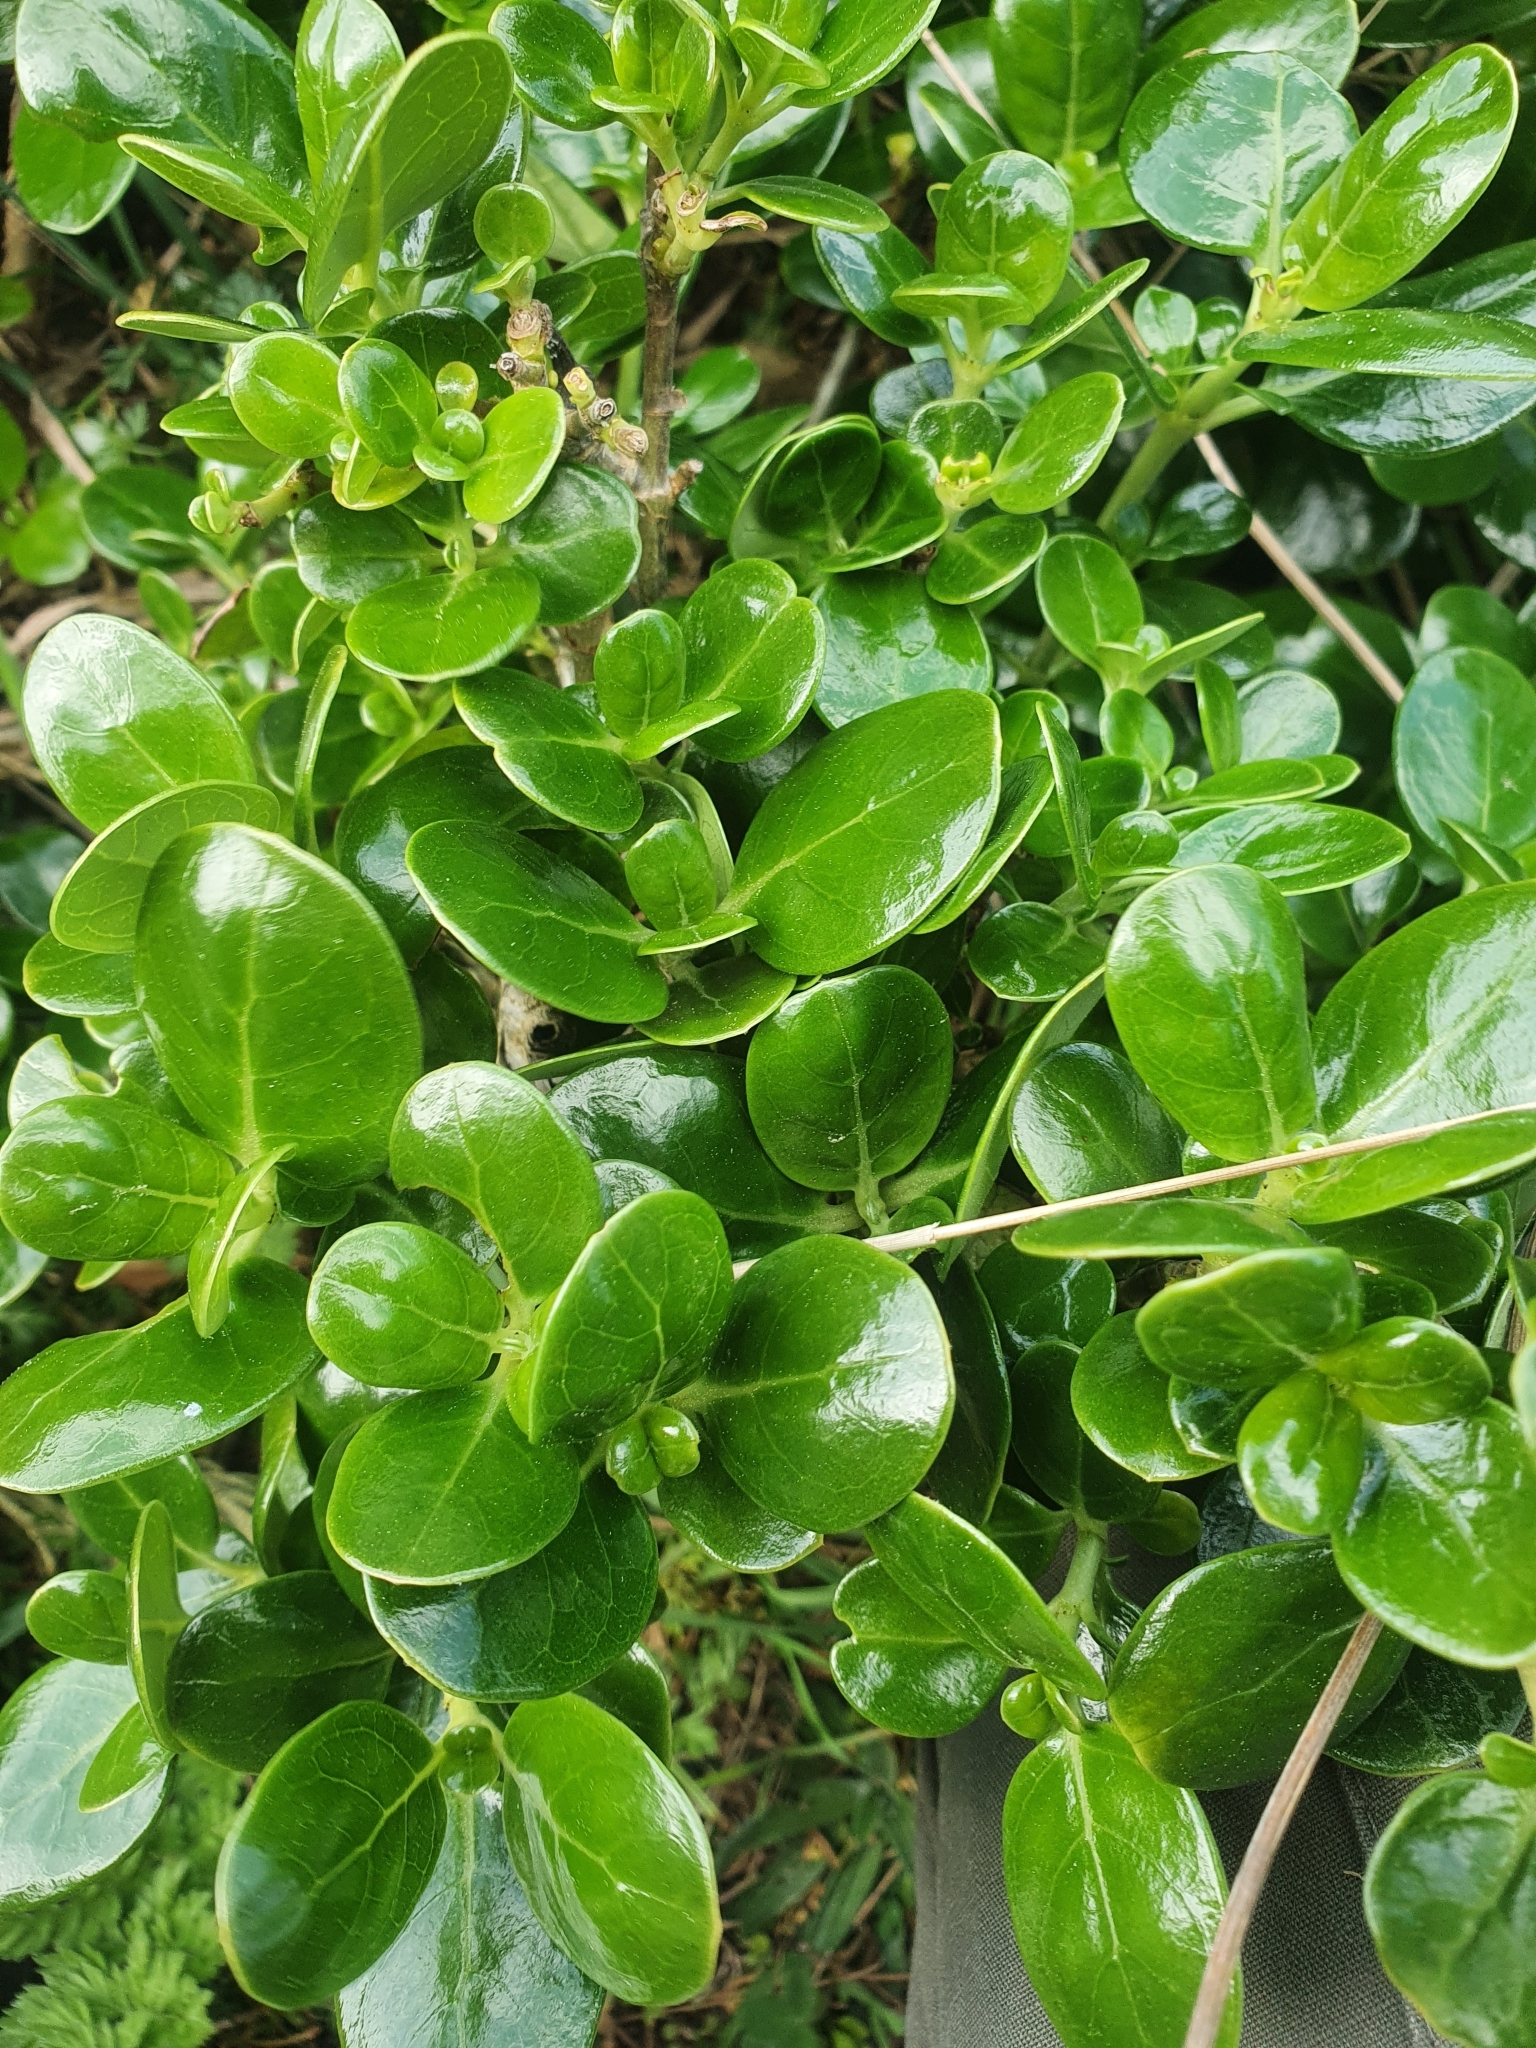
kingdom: Plantae
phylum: Tracheophyta
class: Magnoliopsida
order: Gentianales
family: Rubiaceae
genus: Coprosma
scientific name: Coprosma repens
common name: Tree bedstraw
